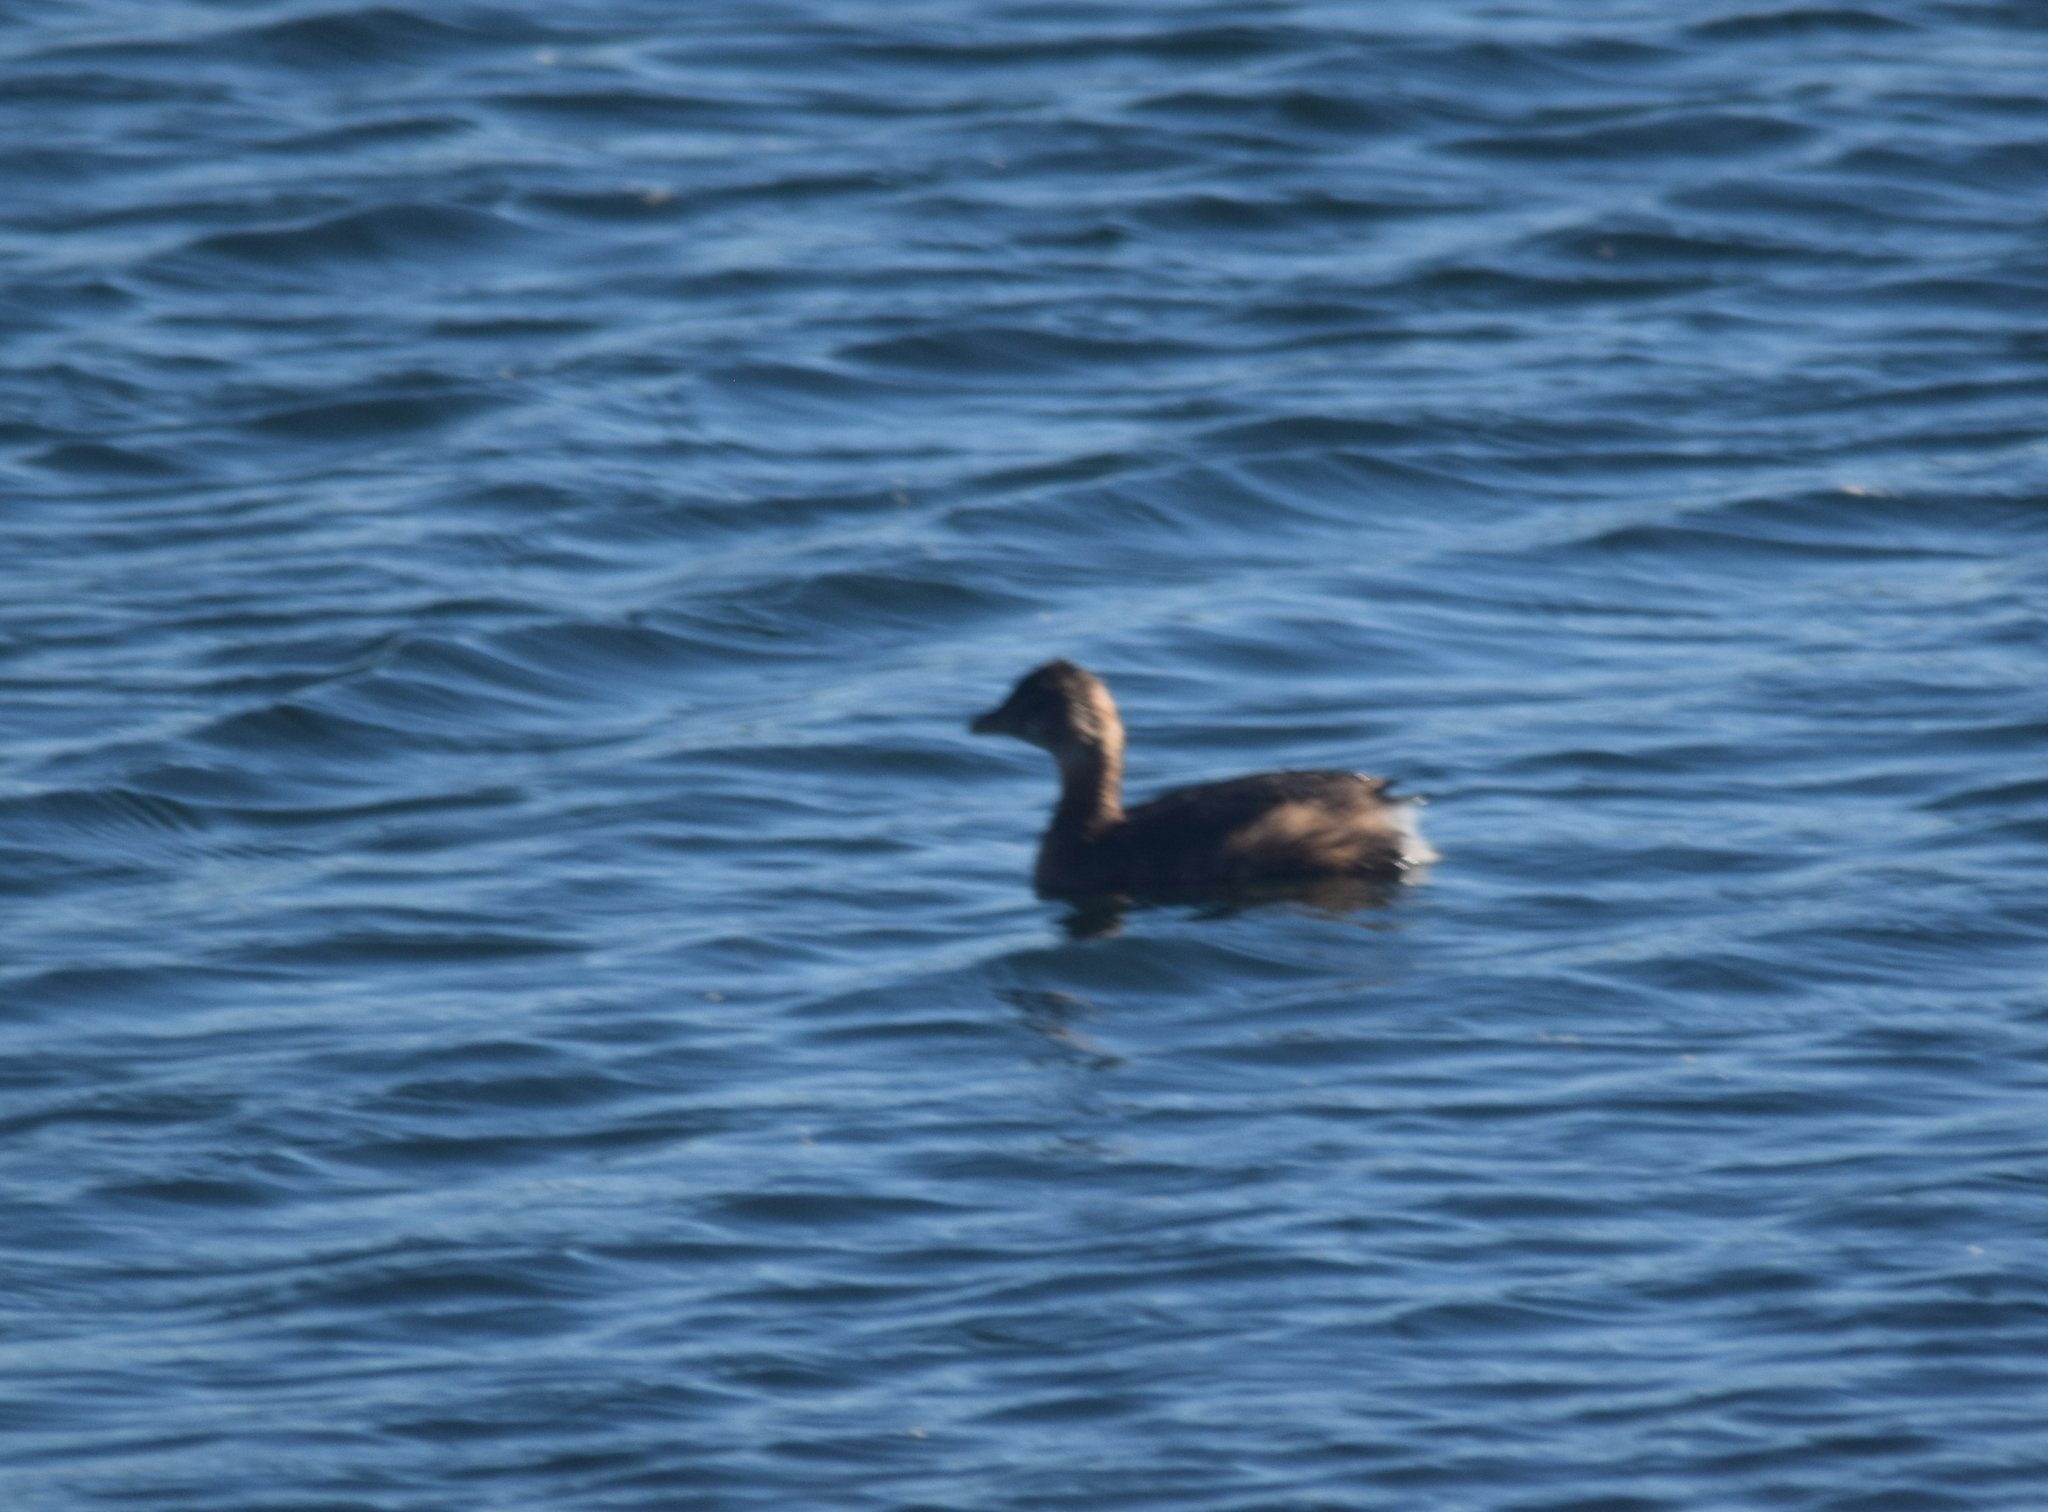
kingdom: Animalia
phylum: Chordata
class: Aves
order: Podicipediformes
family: Podicipedidae
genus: Podilymbus
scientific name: Podilymbus podiceps
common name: Pied-billed grebe
